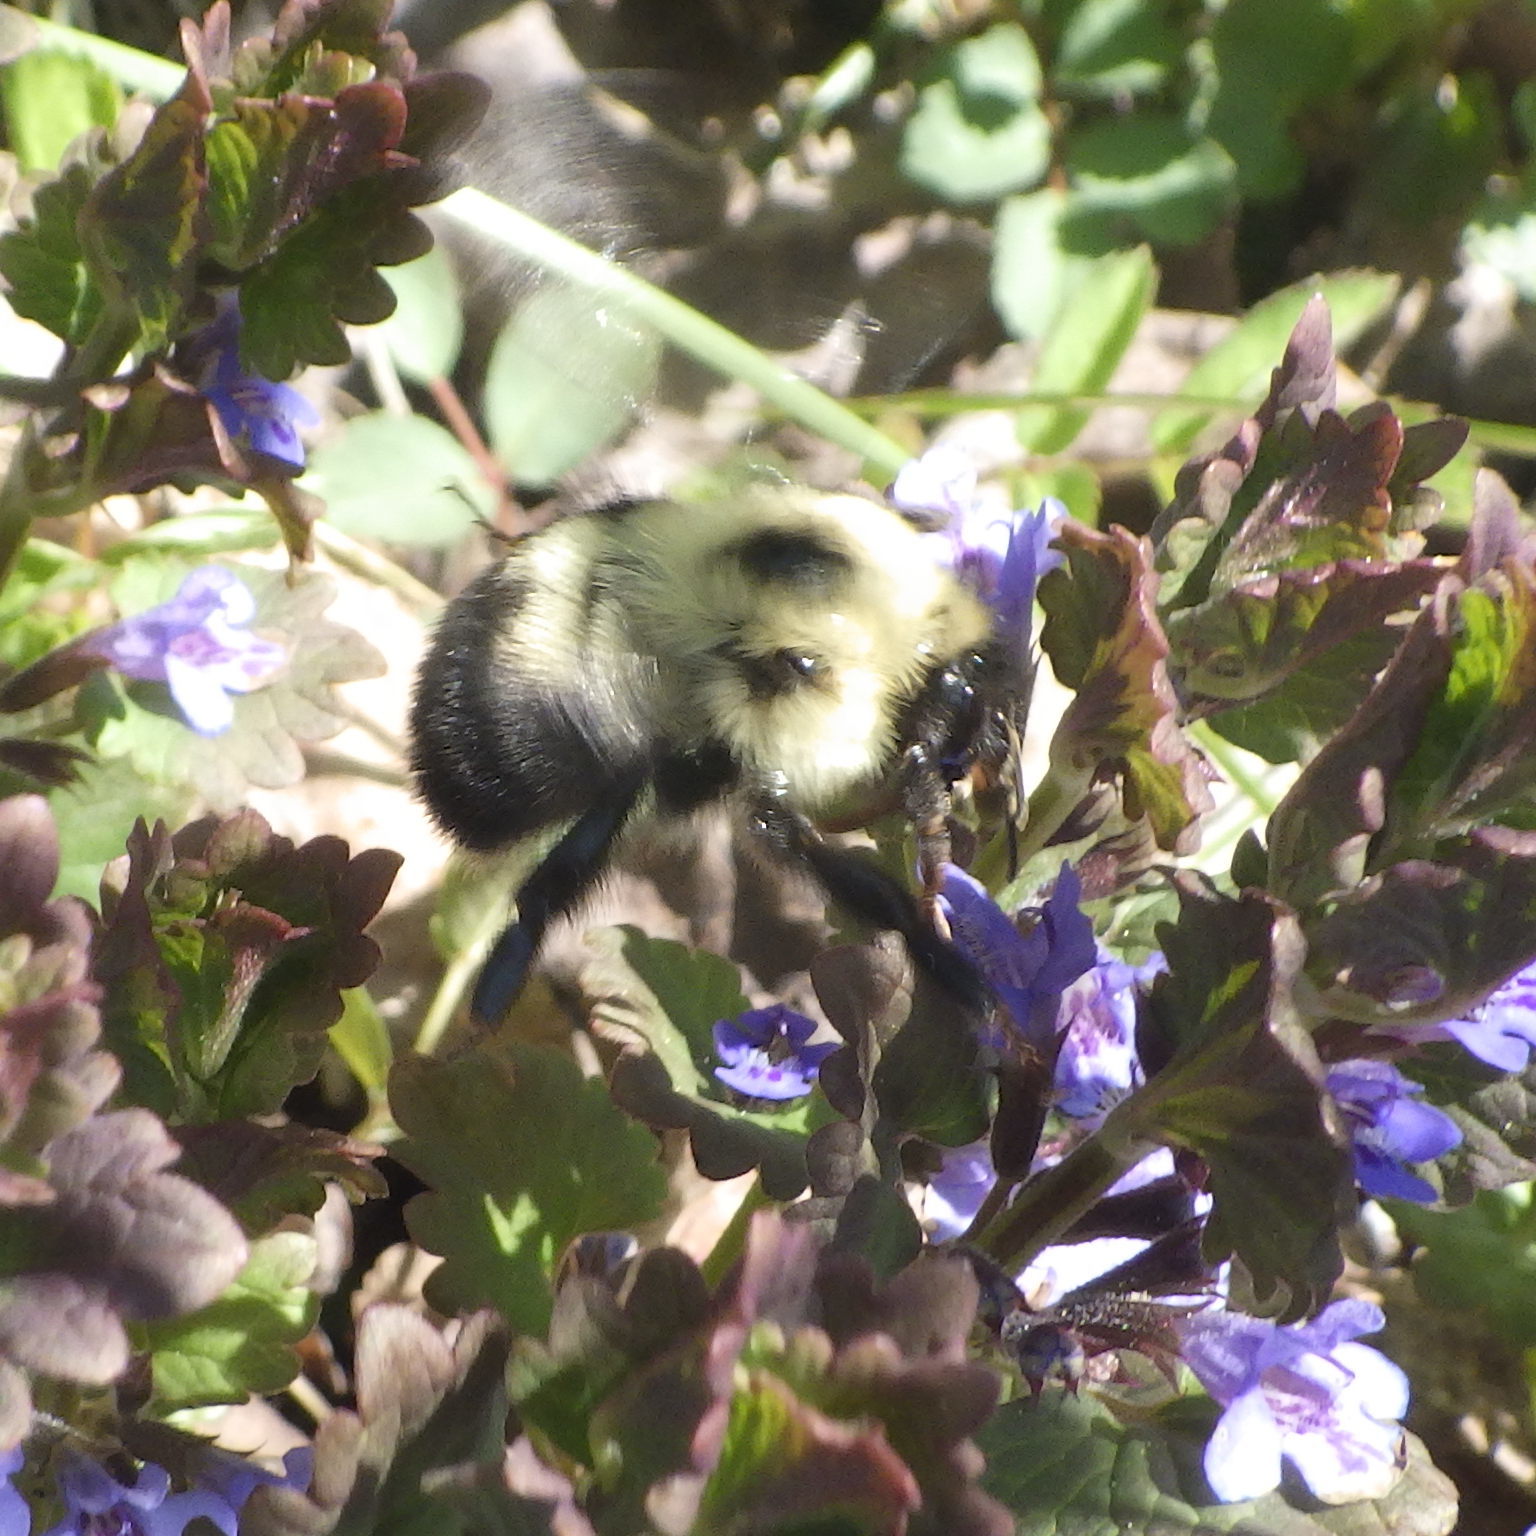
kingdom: Animalia
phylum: Arthropoda
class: Insecta
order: Hymenoptera
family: Apidae
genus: Bombus
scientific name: Bombus bimaculatus
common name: Two-spotted bumble bee
